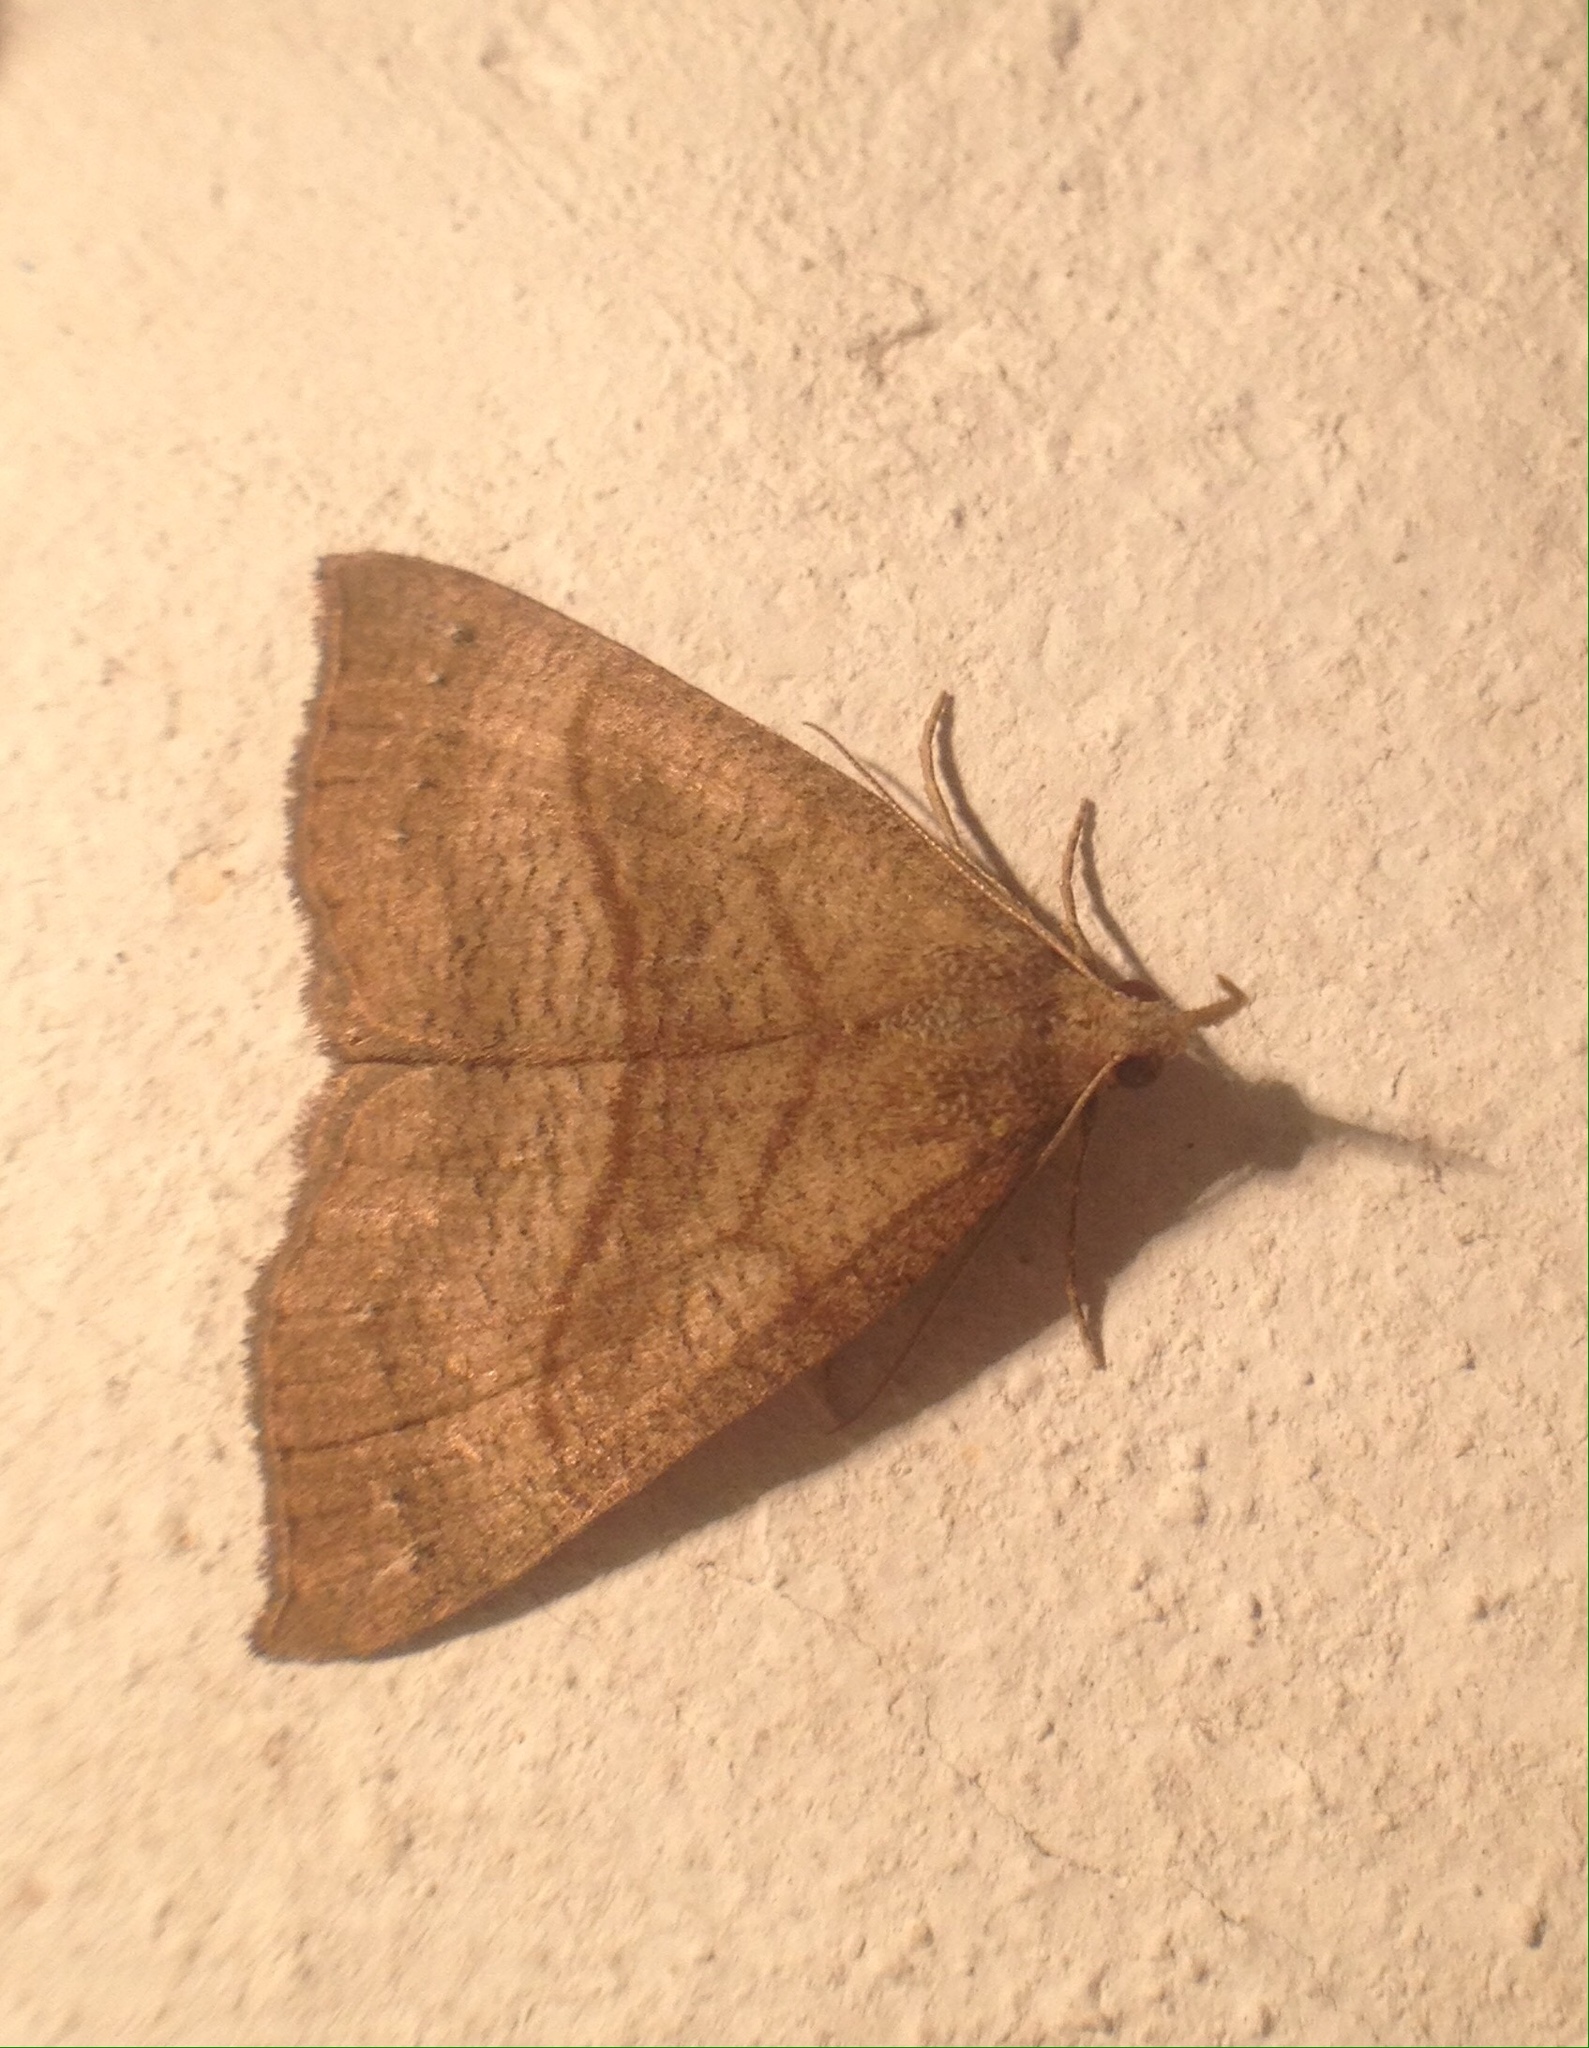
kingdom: Animalia
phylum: Arthropoda
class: Insecta
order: Lepidoptera
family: Erebidae
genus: Hypena
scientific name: Hypena proboscidalis
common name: Snout
